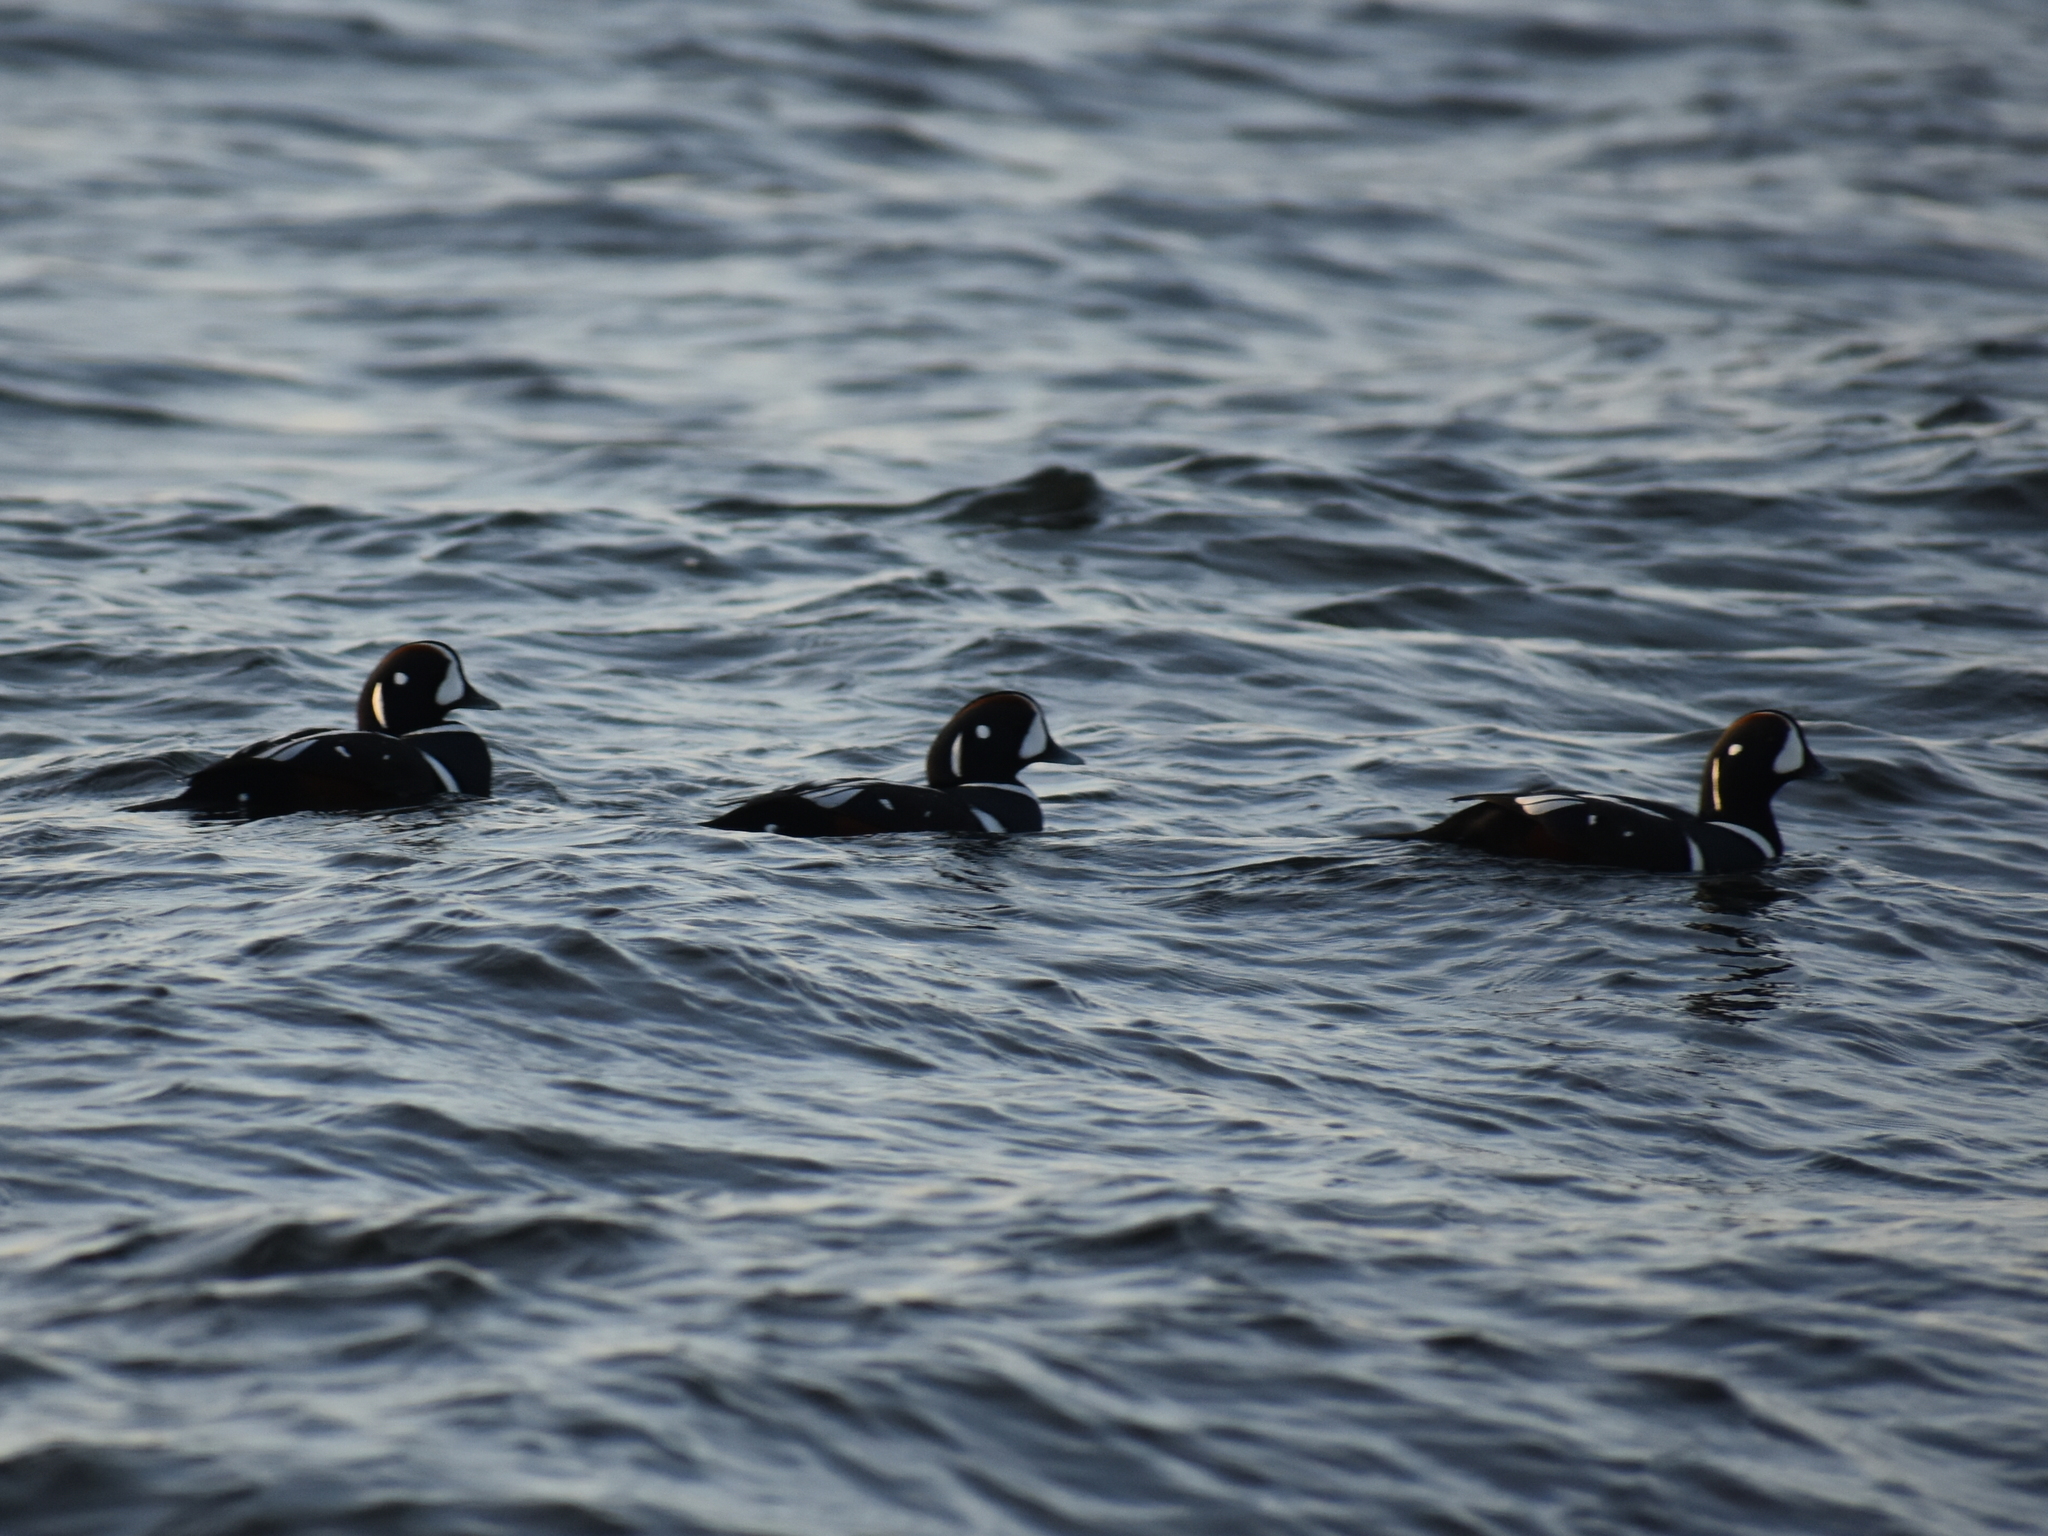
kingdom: Animalia
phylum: Chordata
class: Aves
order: Anseriformes
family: Anatidae
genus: Histrionicus
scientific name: Histrionicus histrionicus
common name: Harlequin duck
